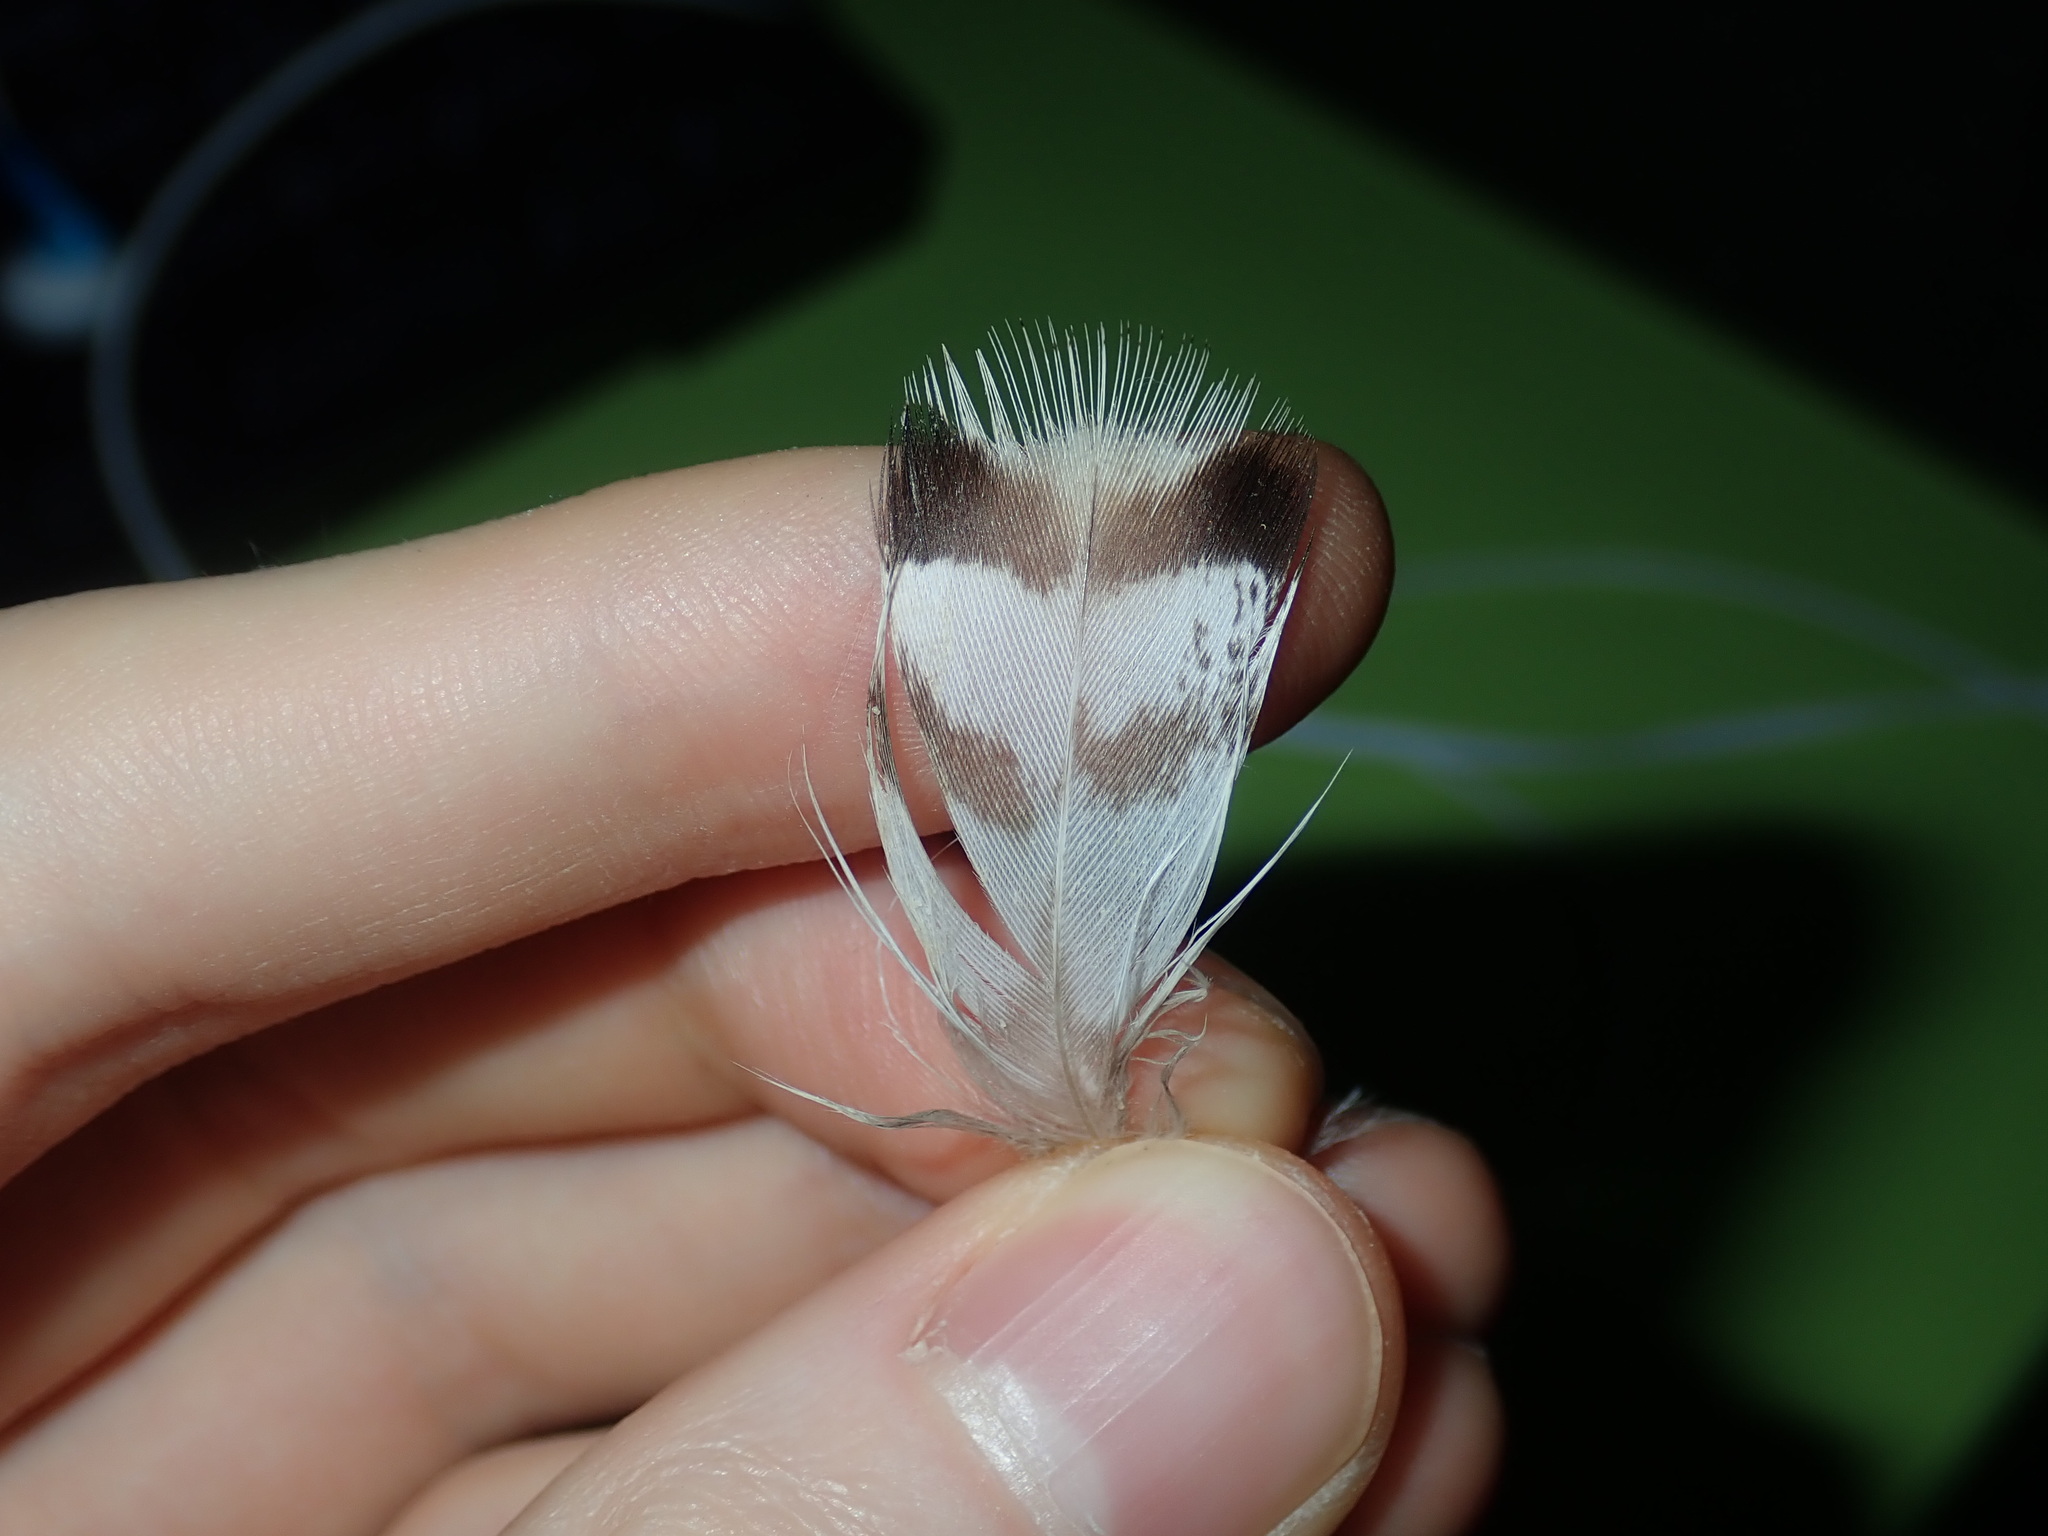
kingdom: Animalia
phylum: Chordata
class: Aves
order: Anseriformes
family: Anatidae
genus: Chenonetta
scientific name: Chenonetta jubata
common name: Maned duck
